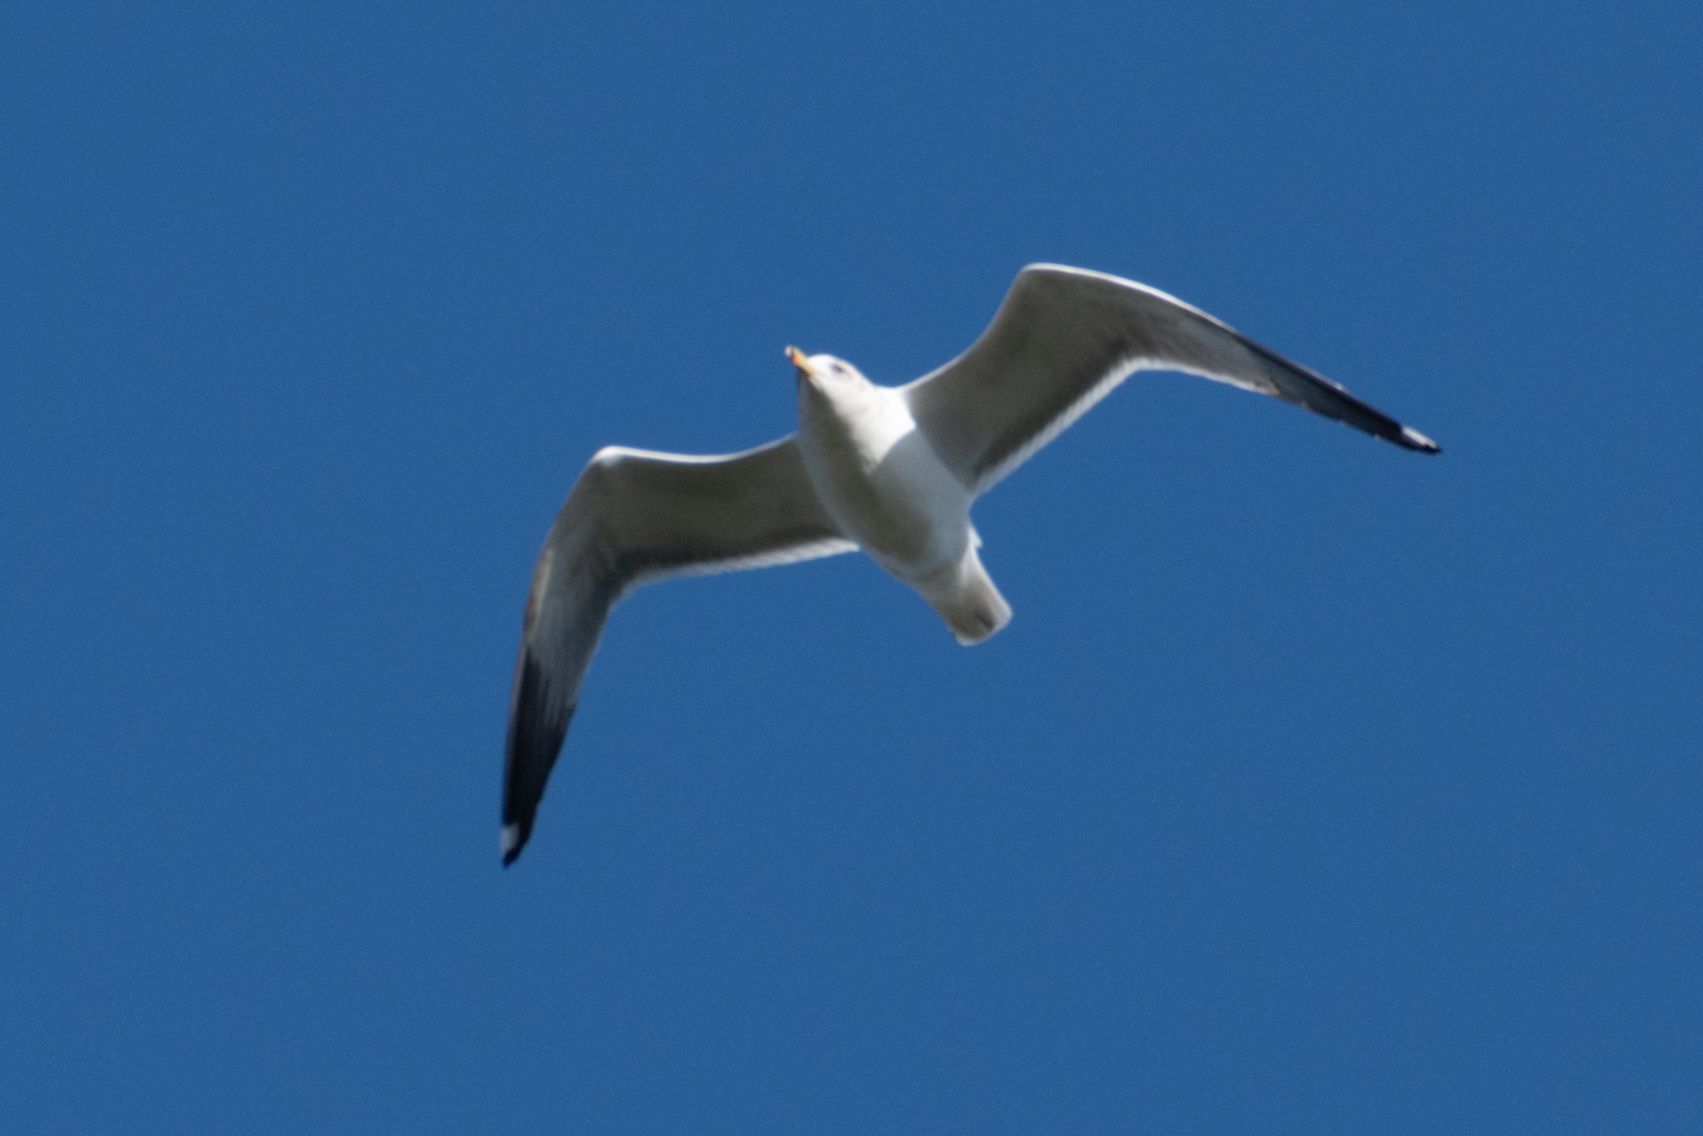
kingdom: Animalia
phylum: Chordata
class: Aves
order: Charadriiformes
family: Laridae
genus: Larus
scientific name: Larus californicus
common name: California gull
